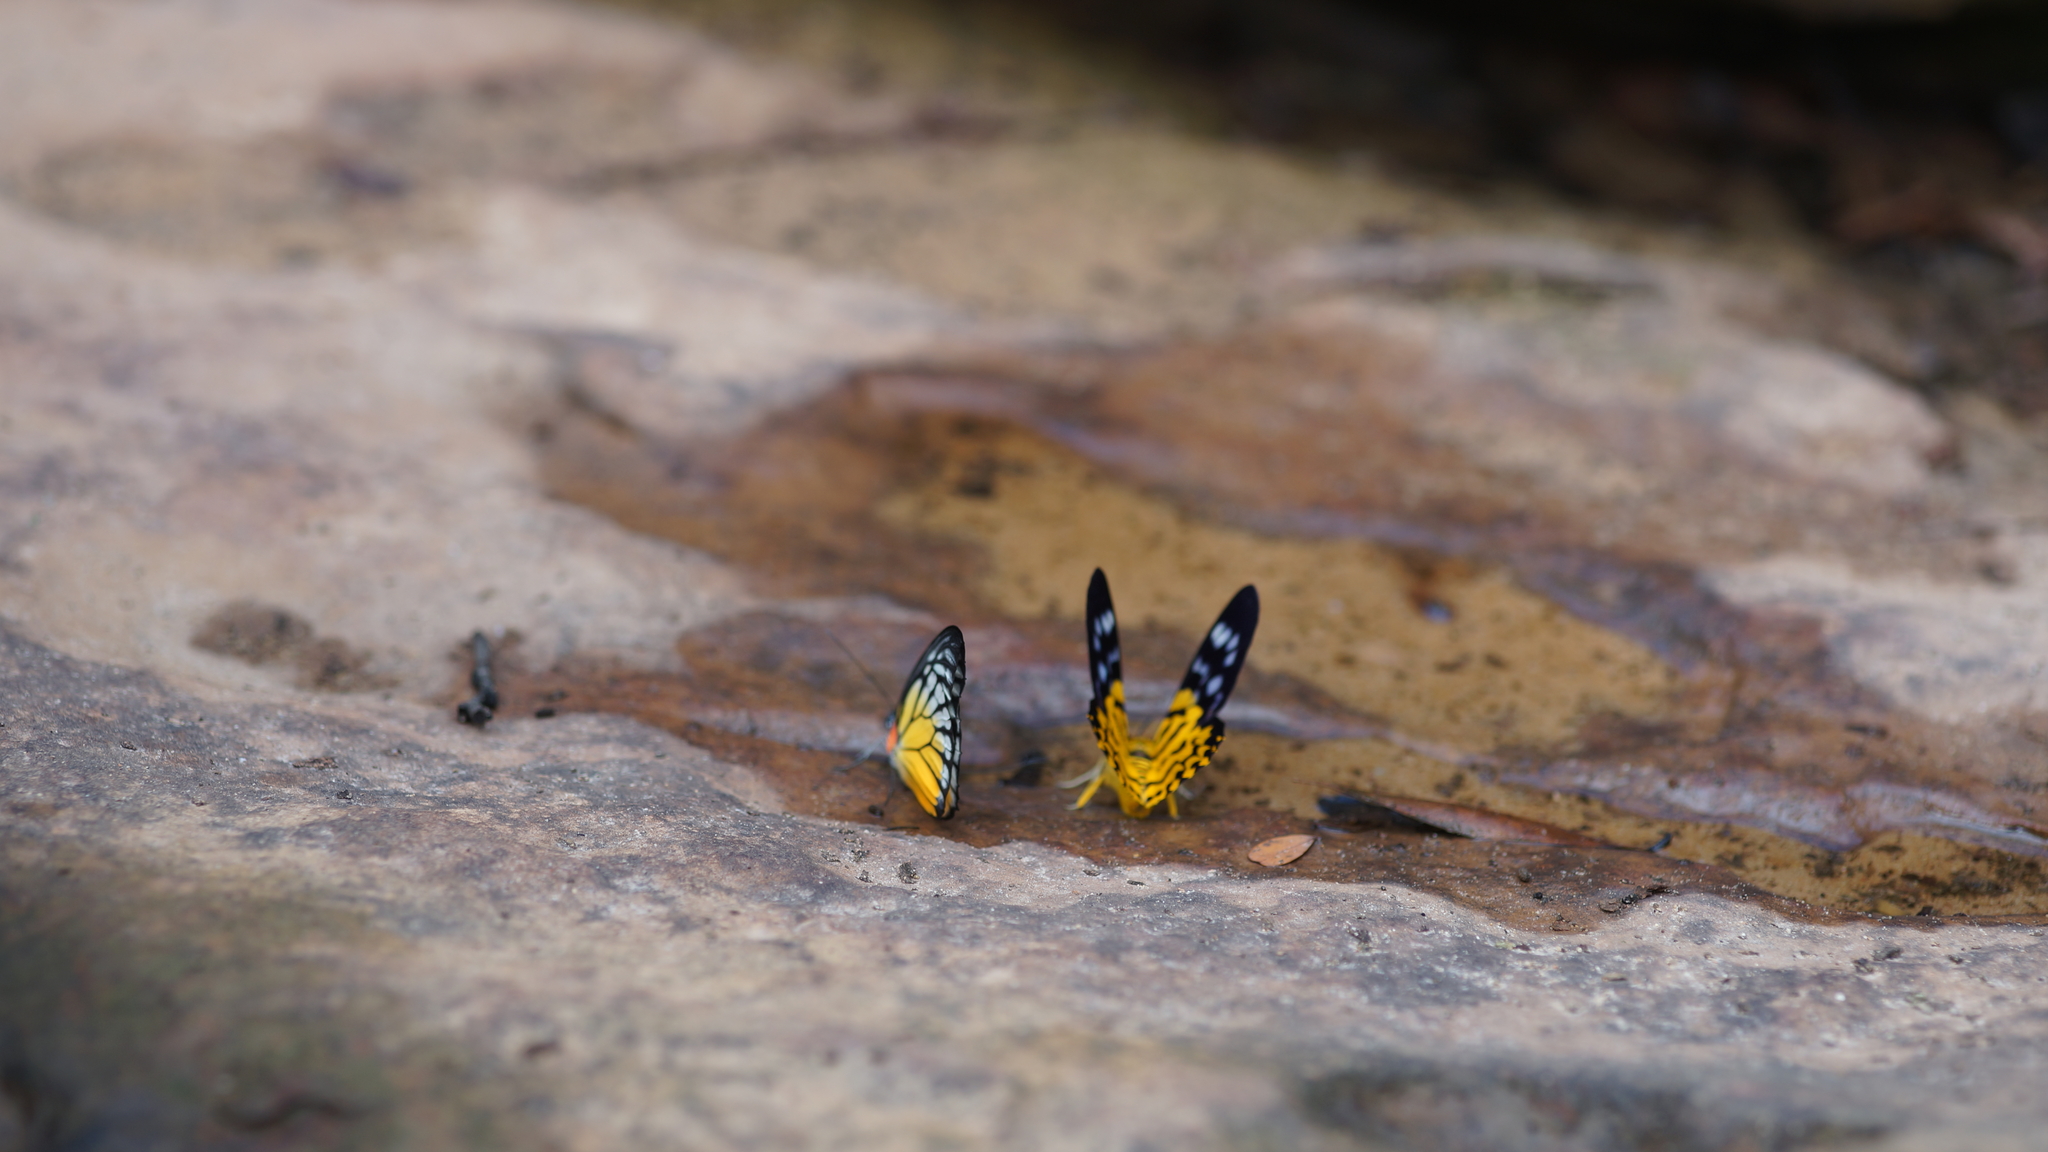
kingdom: Animalia
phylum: Arthropoda
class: Insecta
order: Lepidoptera
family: Pieridae
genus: Prioneris
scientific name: Prioneris
